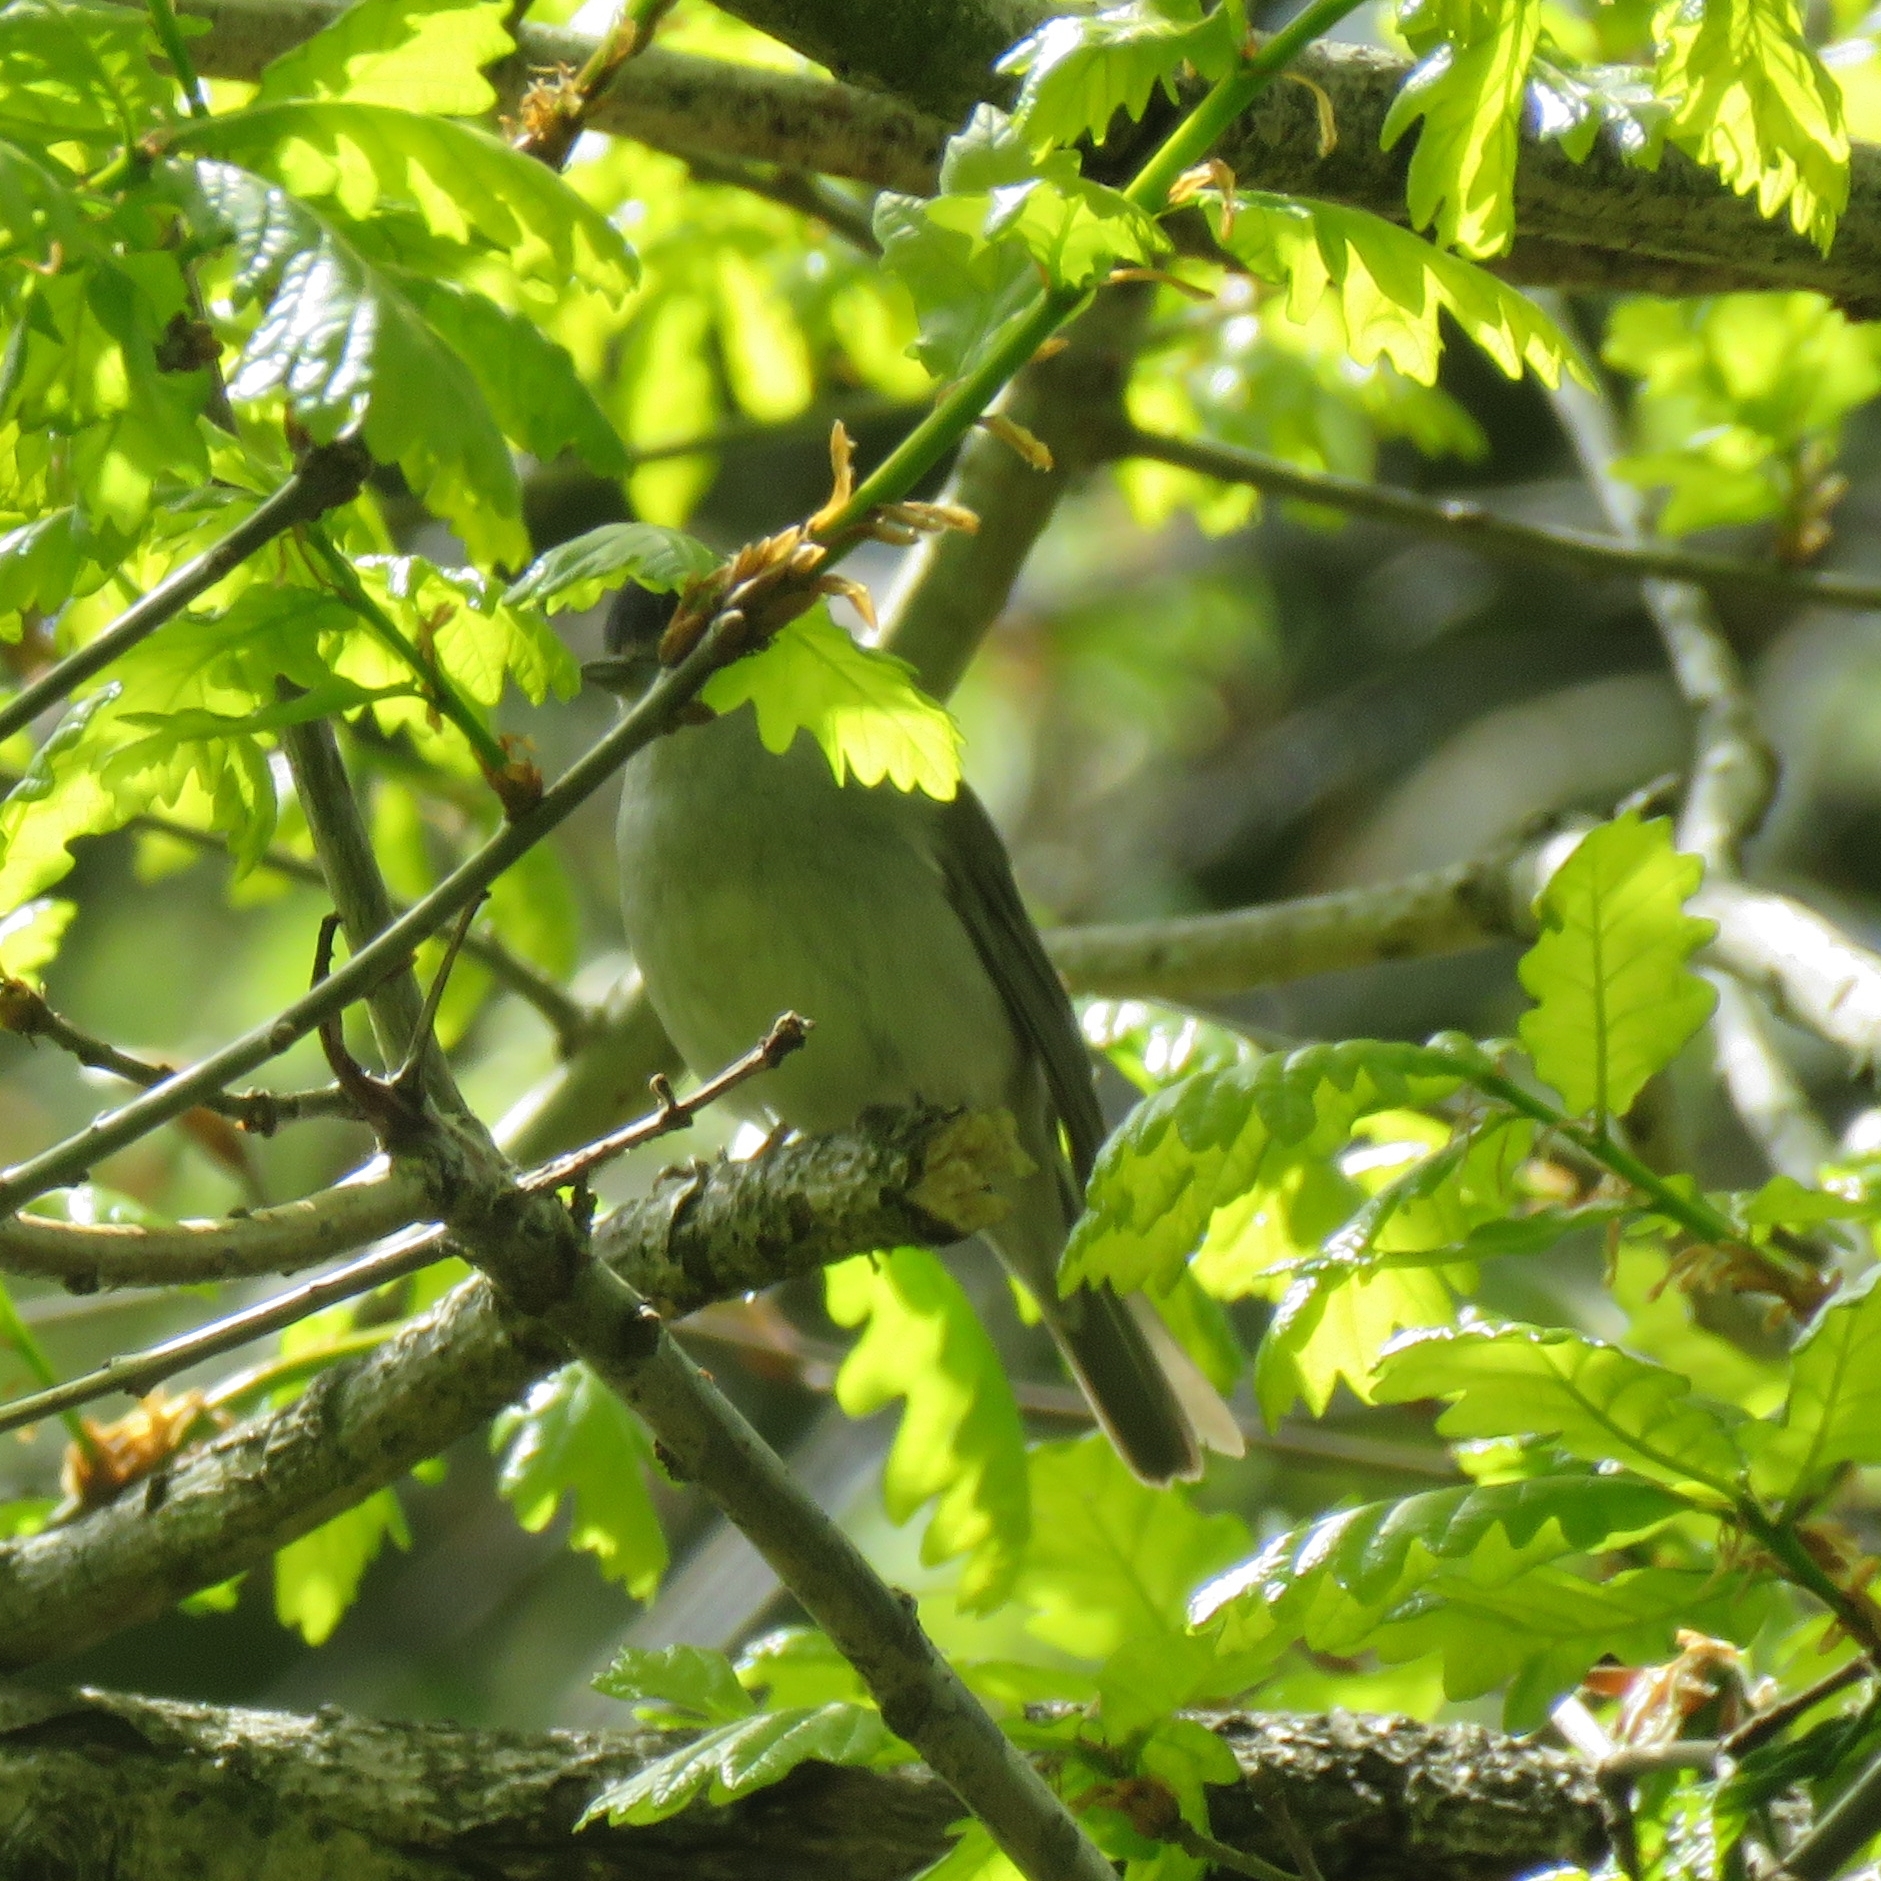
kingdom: Animalia
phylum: Chordata
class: Aves
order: Passeriformes
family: Sylviidae
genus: Sylvia
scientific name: Sylvia atricapilla
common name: Eurasian blackcap
